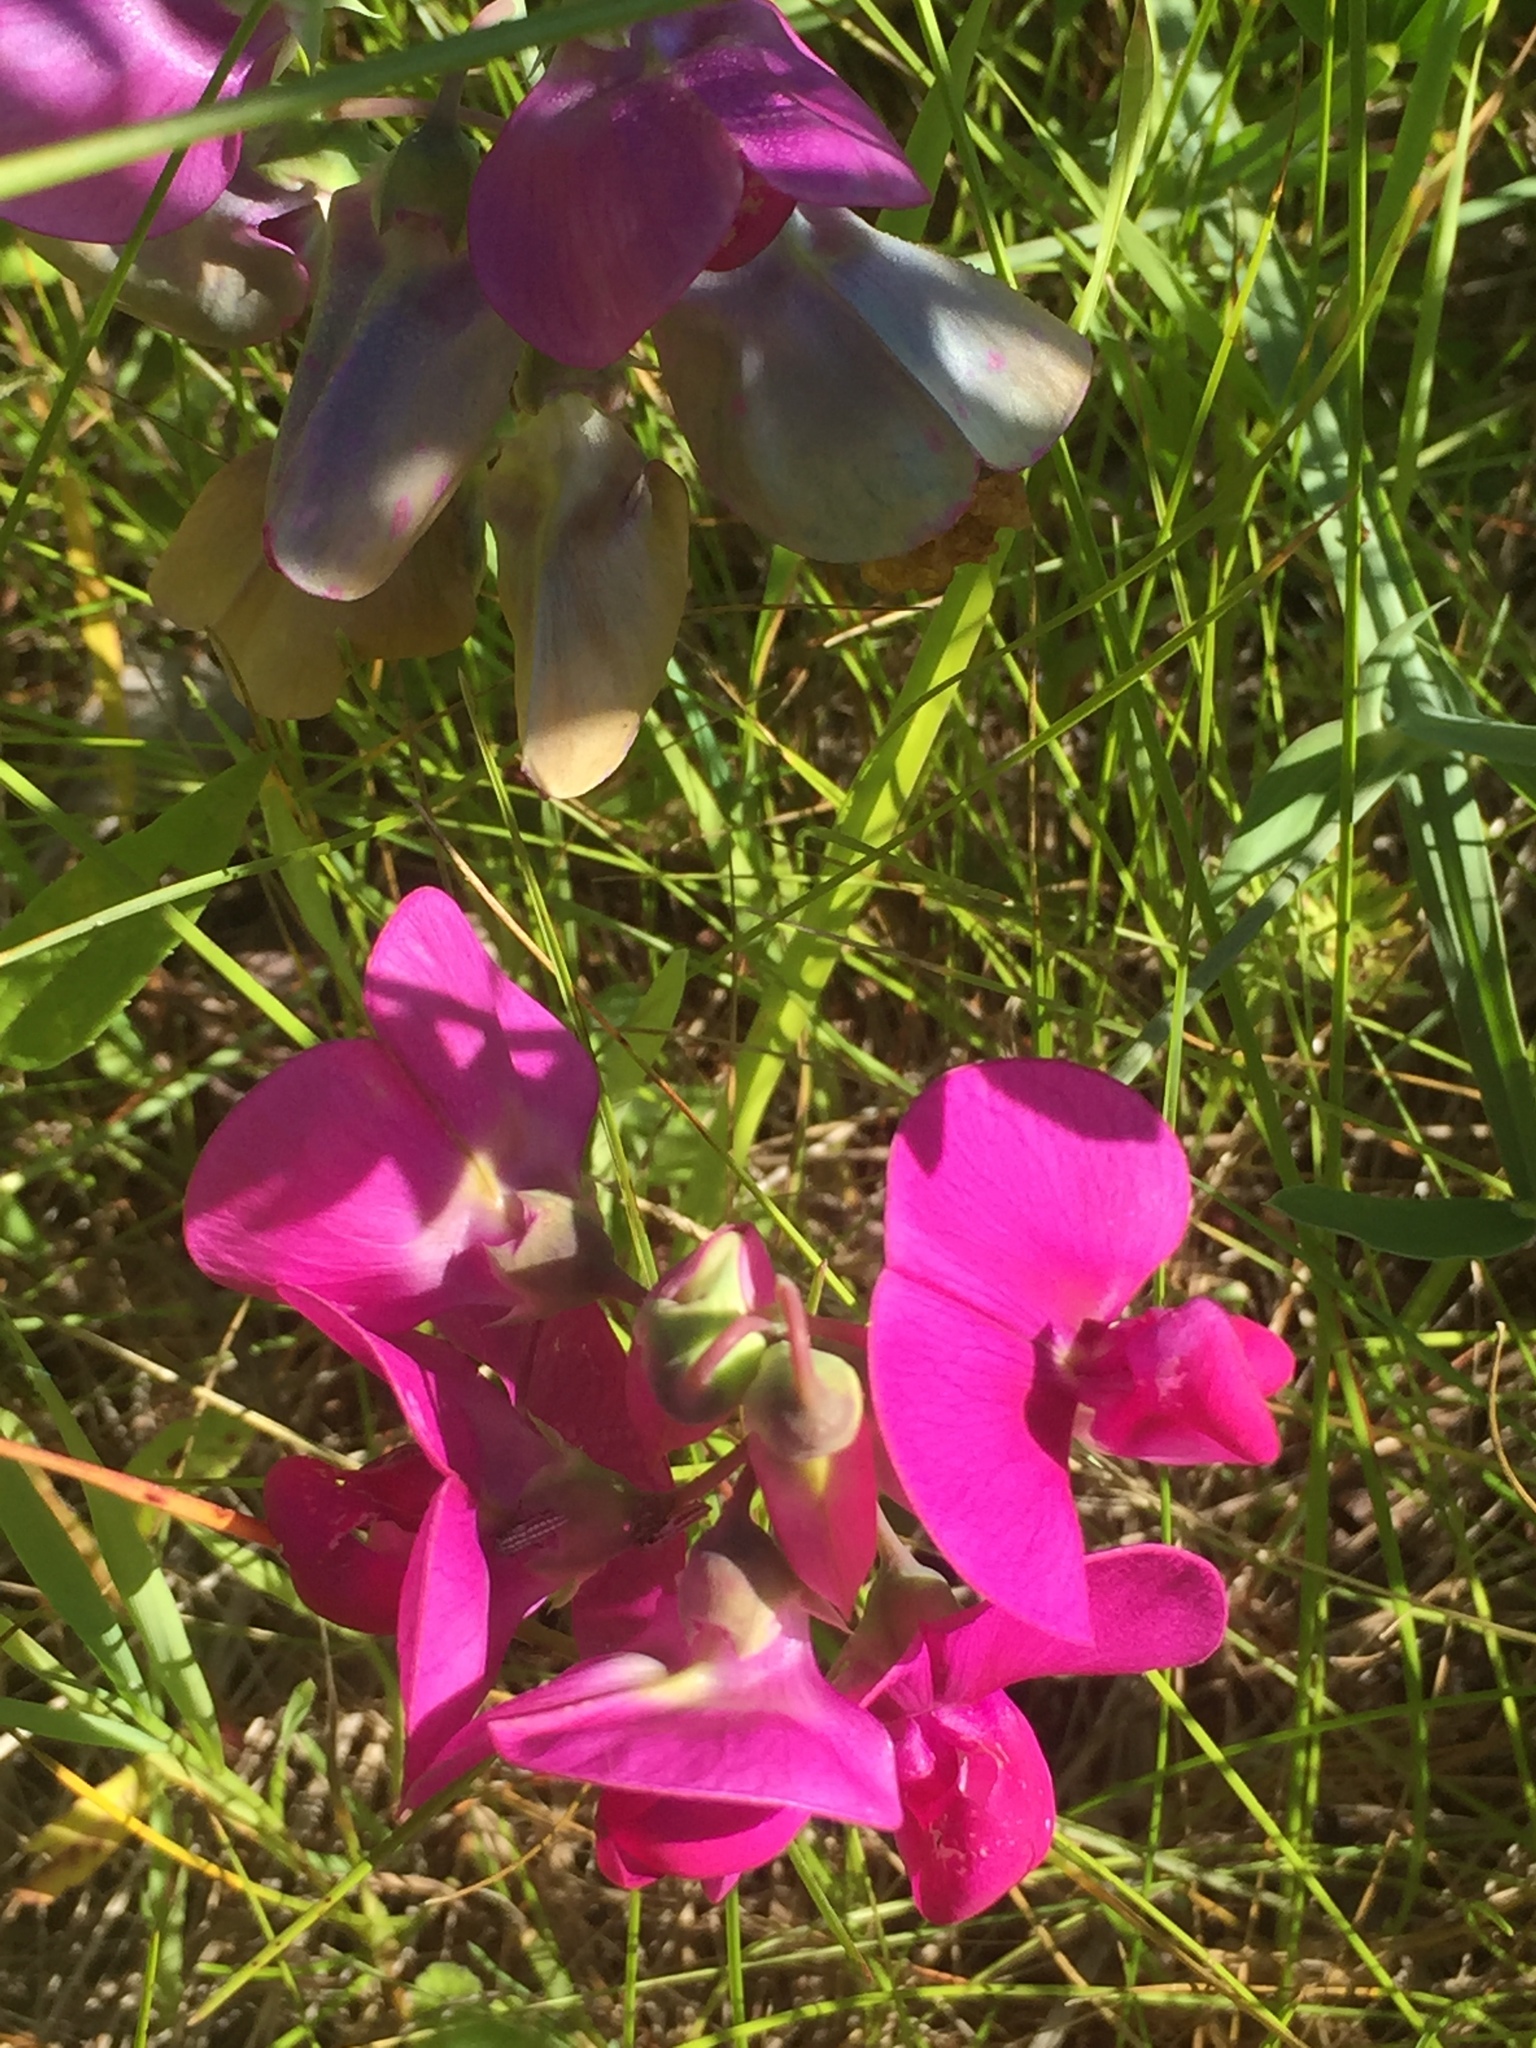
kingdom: Plantae
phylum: Tracheophyta
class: Magnoliopsida
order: Fabales
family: Fabaceae
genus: Lathyrus
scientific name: Lathyrus latifolius
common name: Perennial pea
